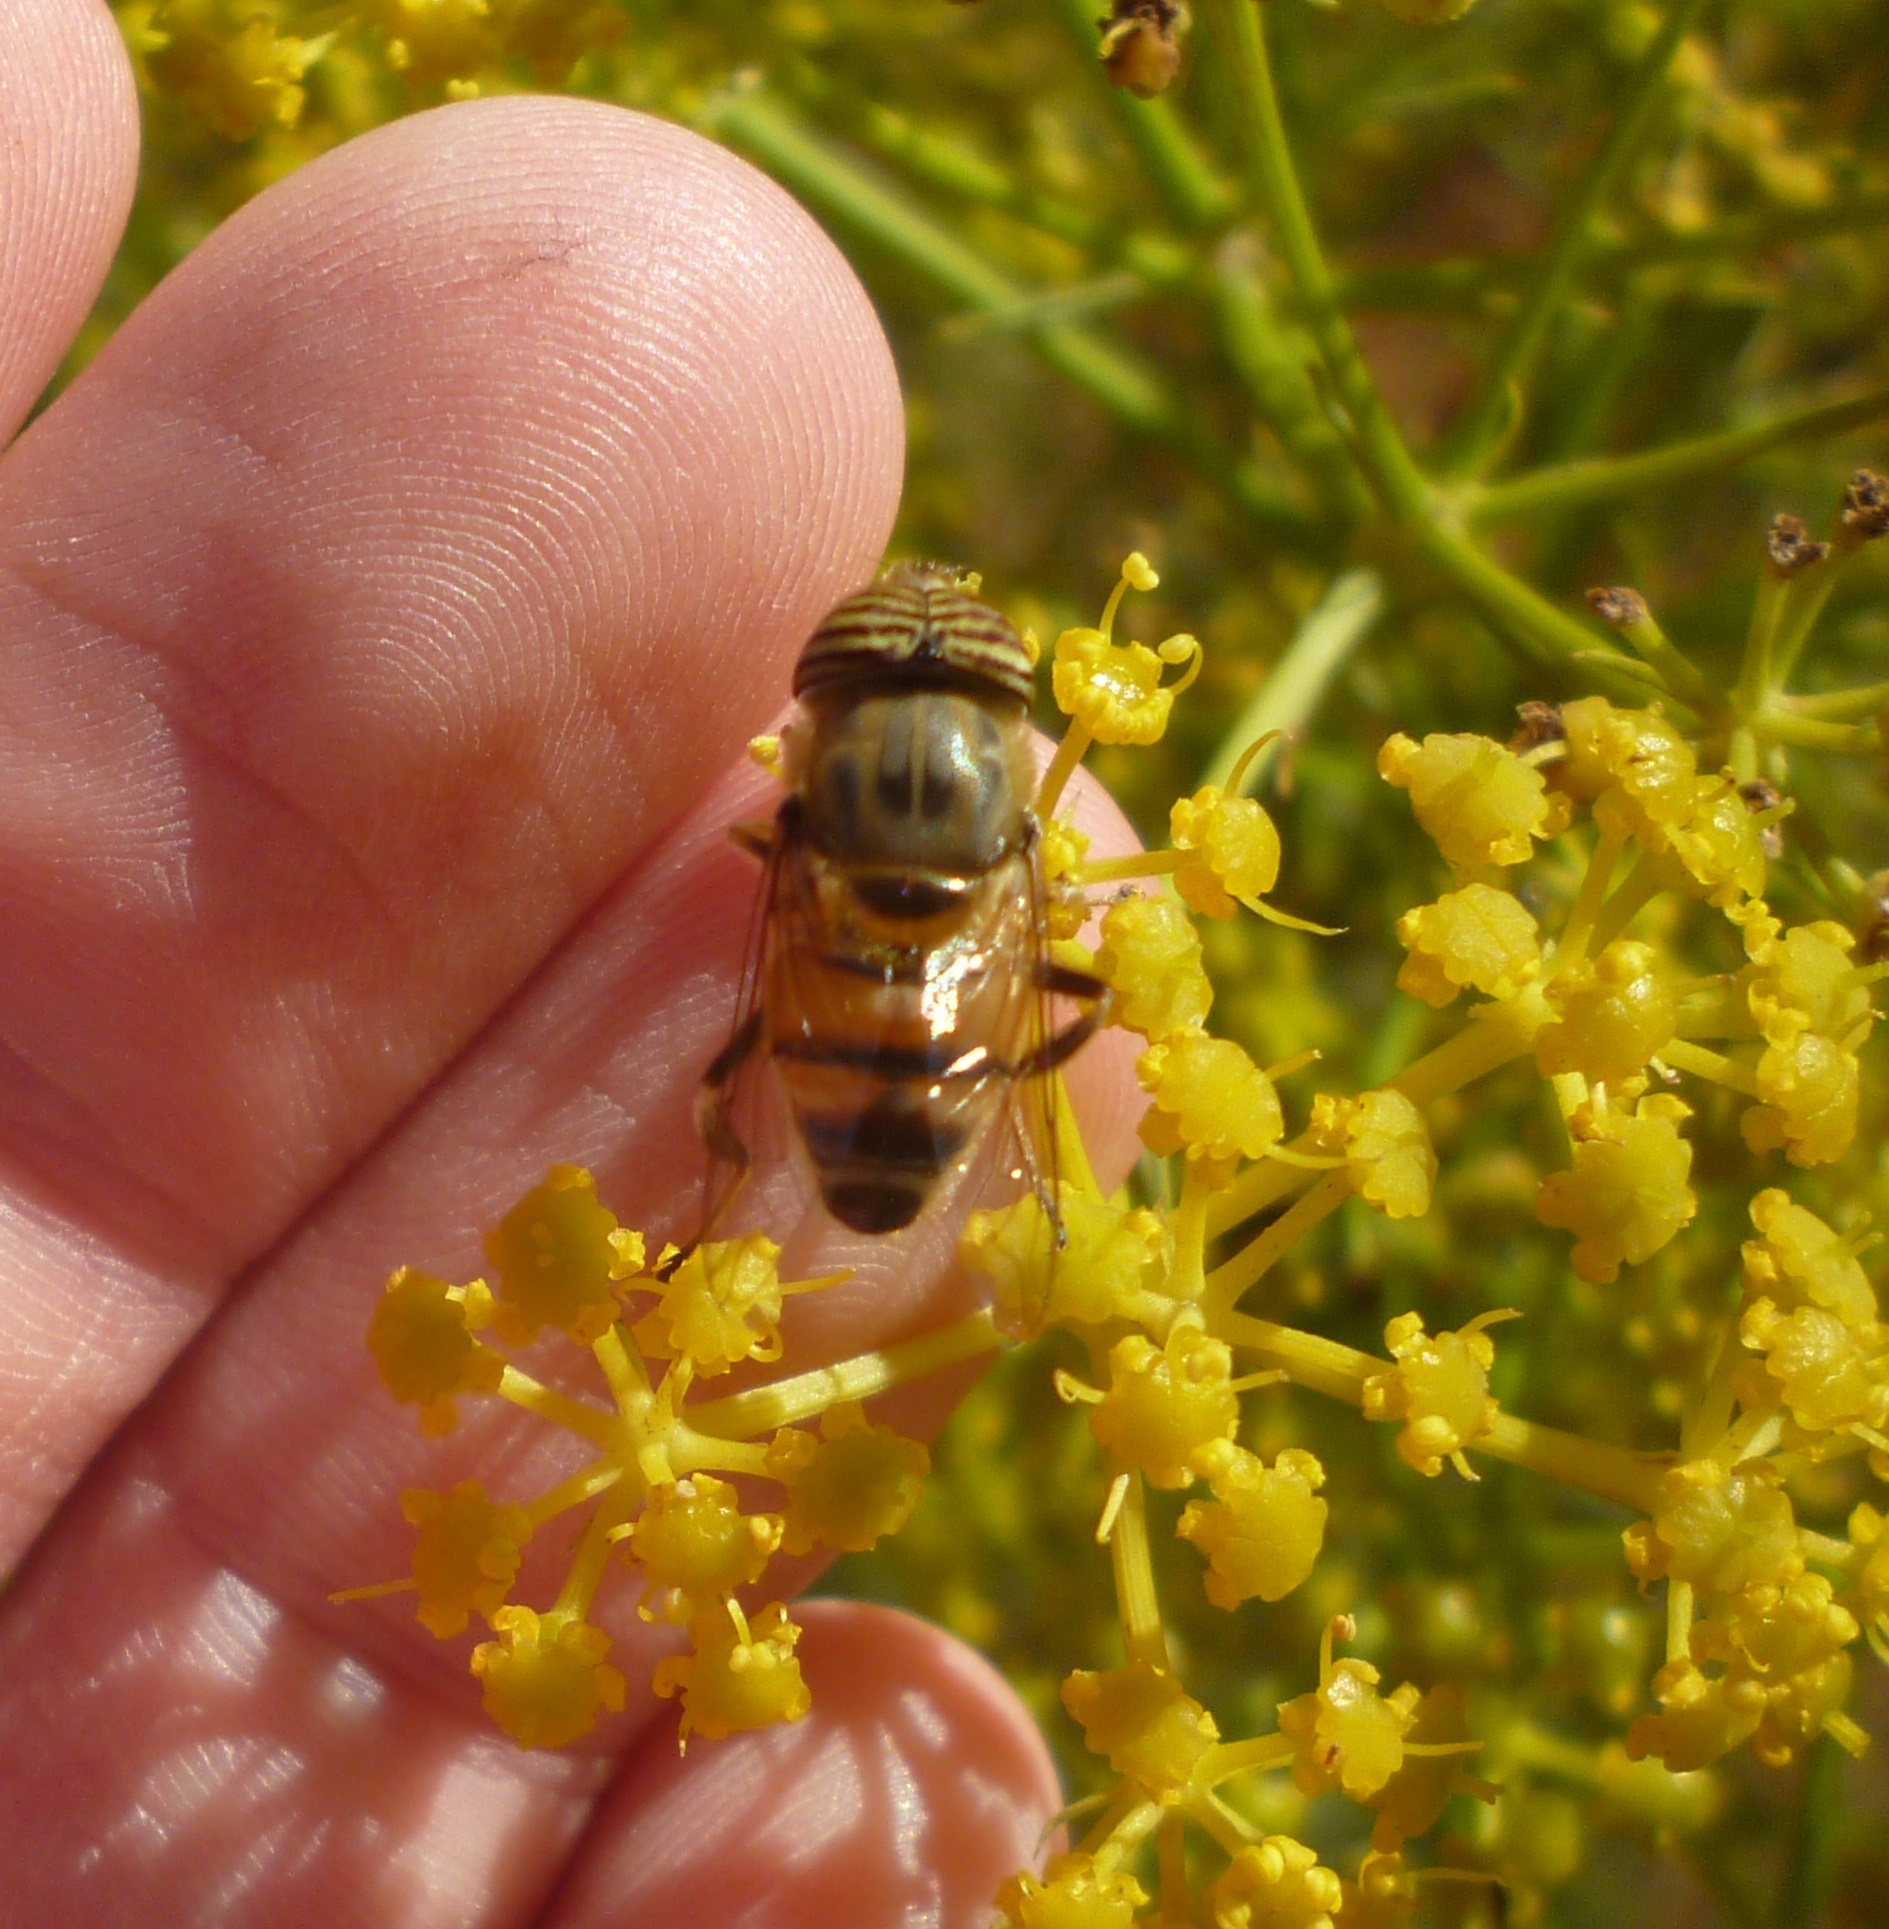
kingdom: Animalia
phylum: Arthropoda
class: Insecta
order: Diptera
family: Syrphidae
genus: Eristalinus
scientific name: Eristalinus taeniops
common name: Syrphid fly
